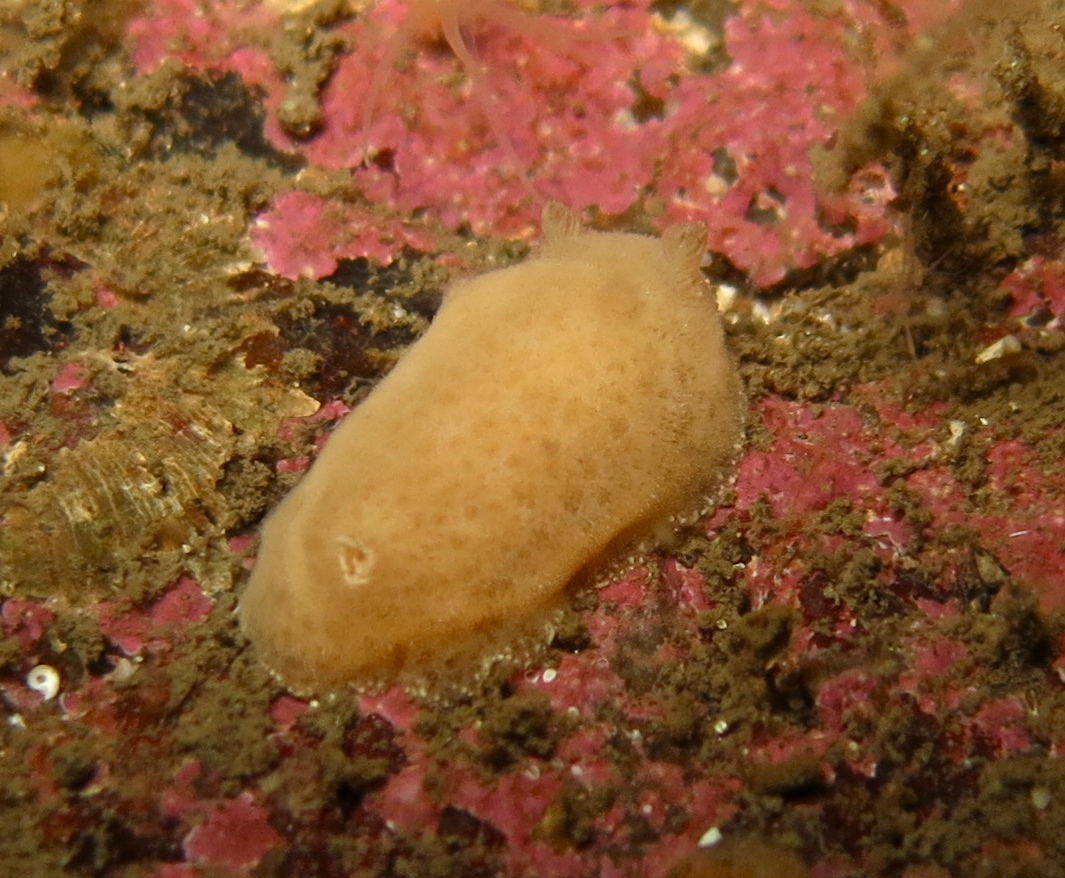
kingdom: Animalia
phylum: Mollusca
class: Gastropoda
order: Nudibranchia
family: Discodorididae
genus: Jorunna
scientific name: Jorunna tomentosa
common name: Grey sea slug
